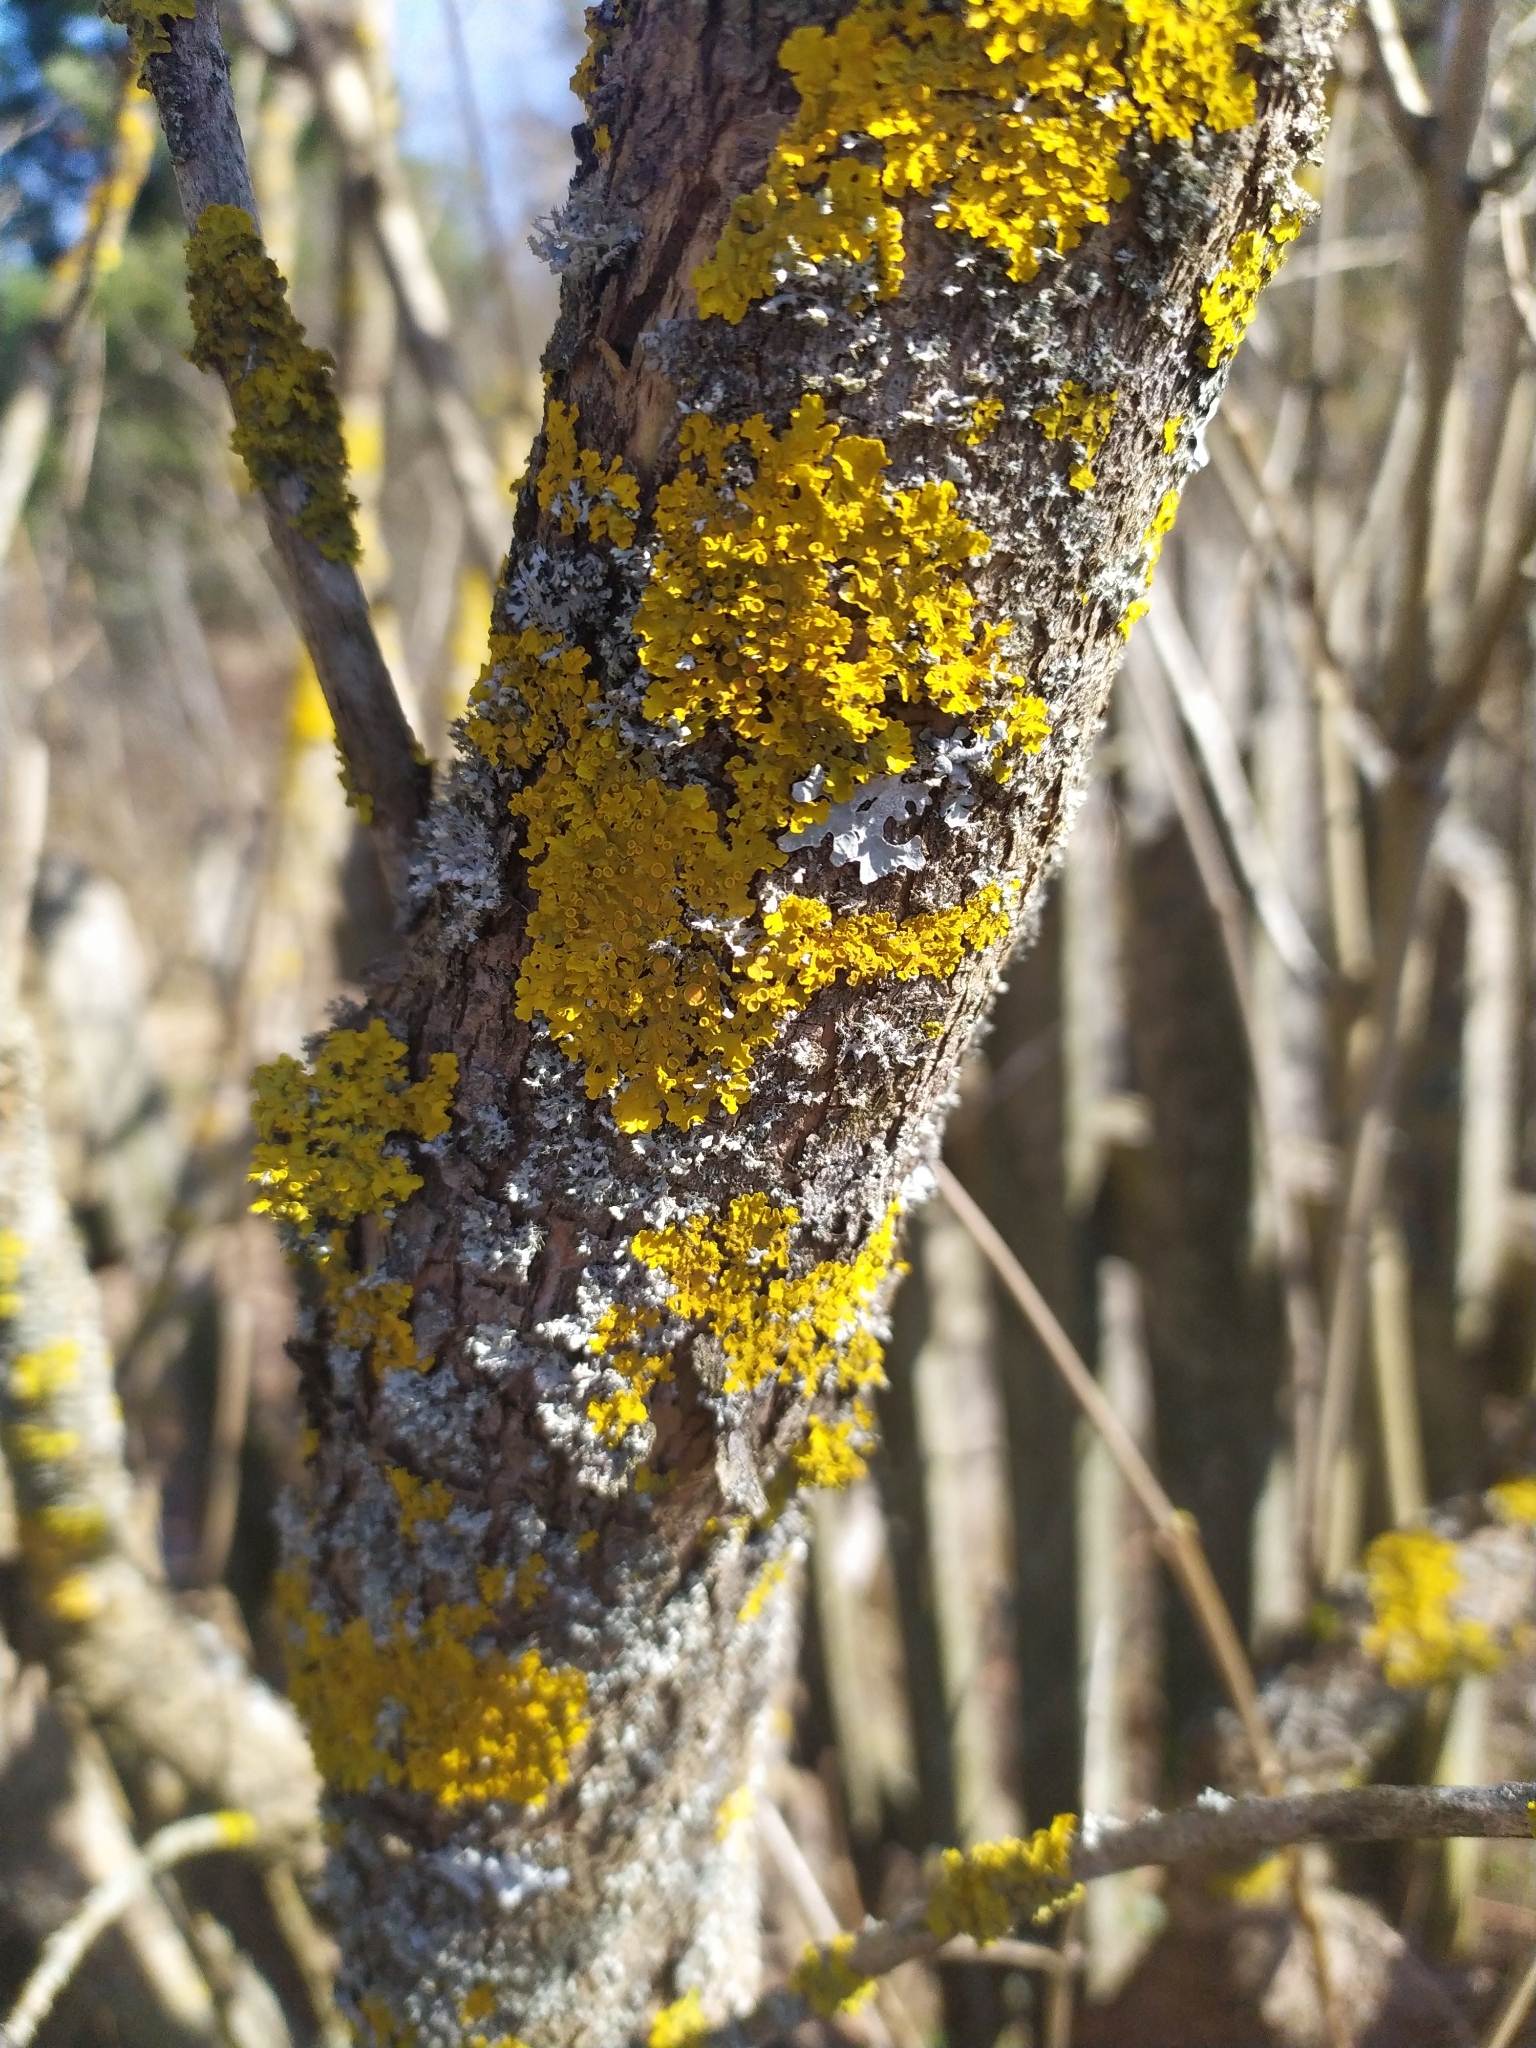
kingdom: Fungi
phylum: Ascomycota
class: Lecanoromycetes
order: Teloschistales
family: Teloschistaceae
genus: Xanthoria
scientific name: Xanthoria parietina
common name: Common orange lichen
